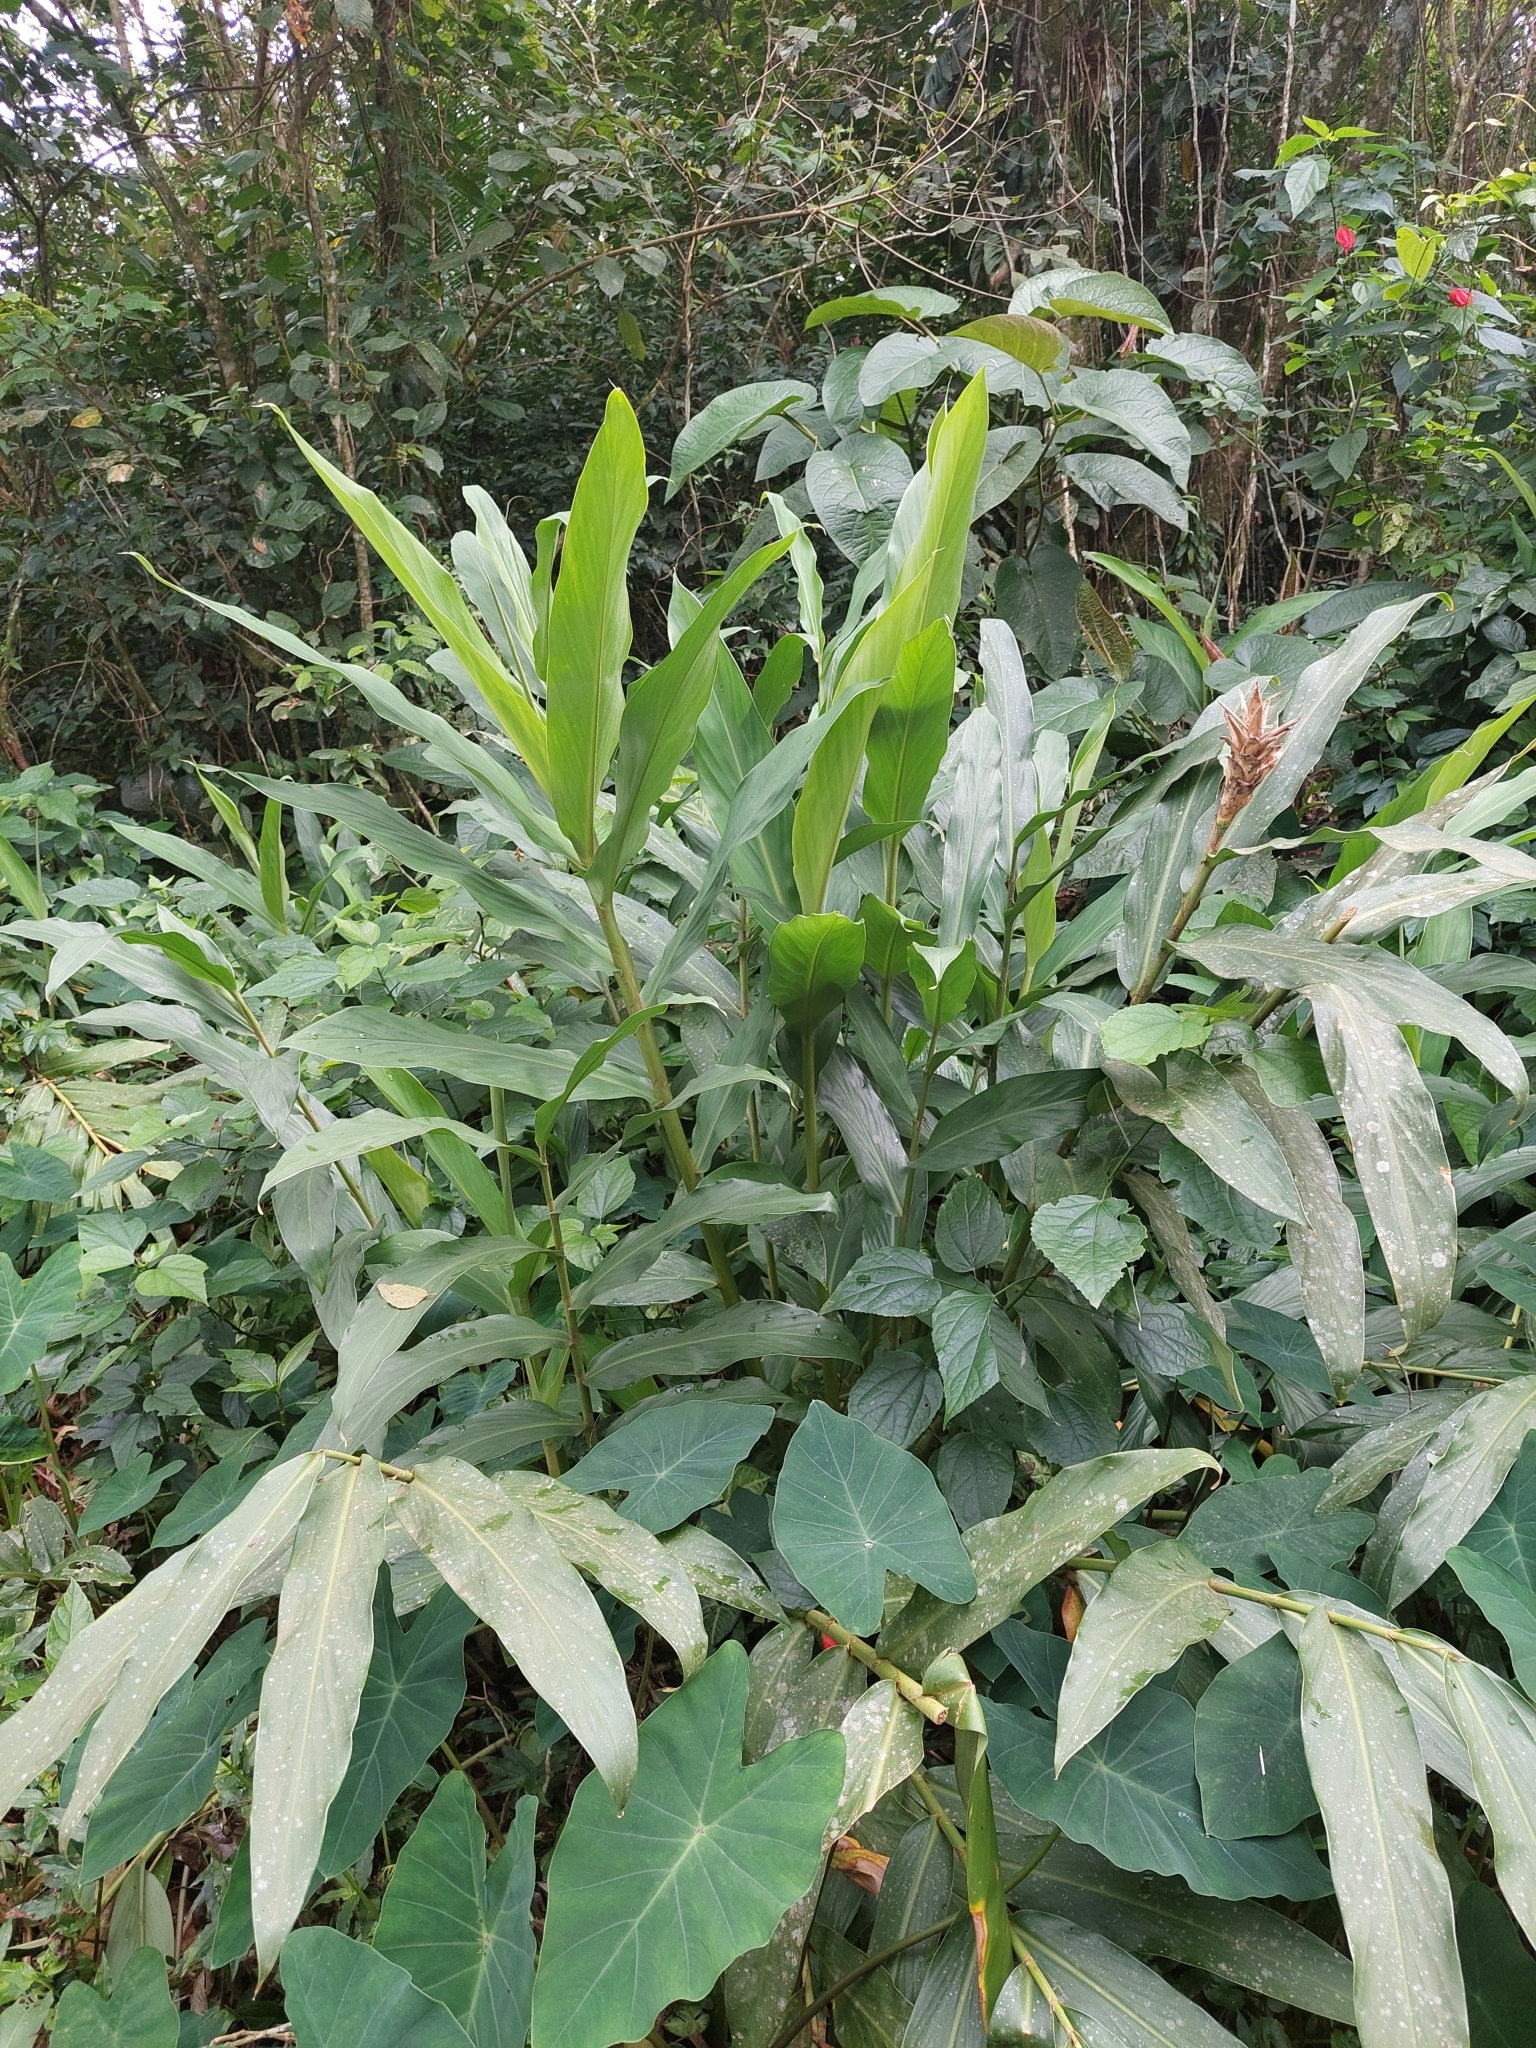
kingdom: Plantae
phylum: Tracheophyta
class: Liliopsida
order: Zingiberales
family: Zingiberaceae
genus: Hedychium
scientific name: Hedychium coronarium
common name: White garland-lily
